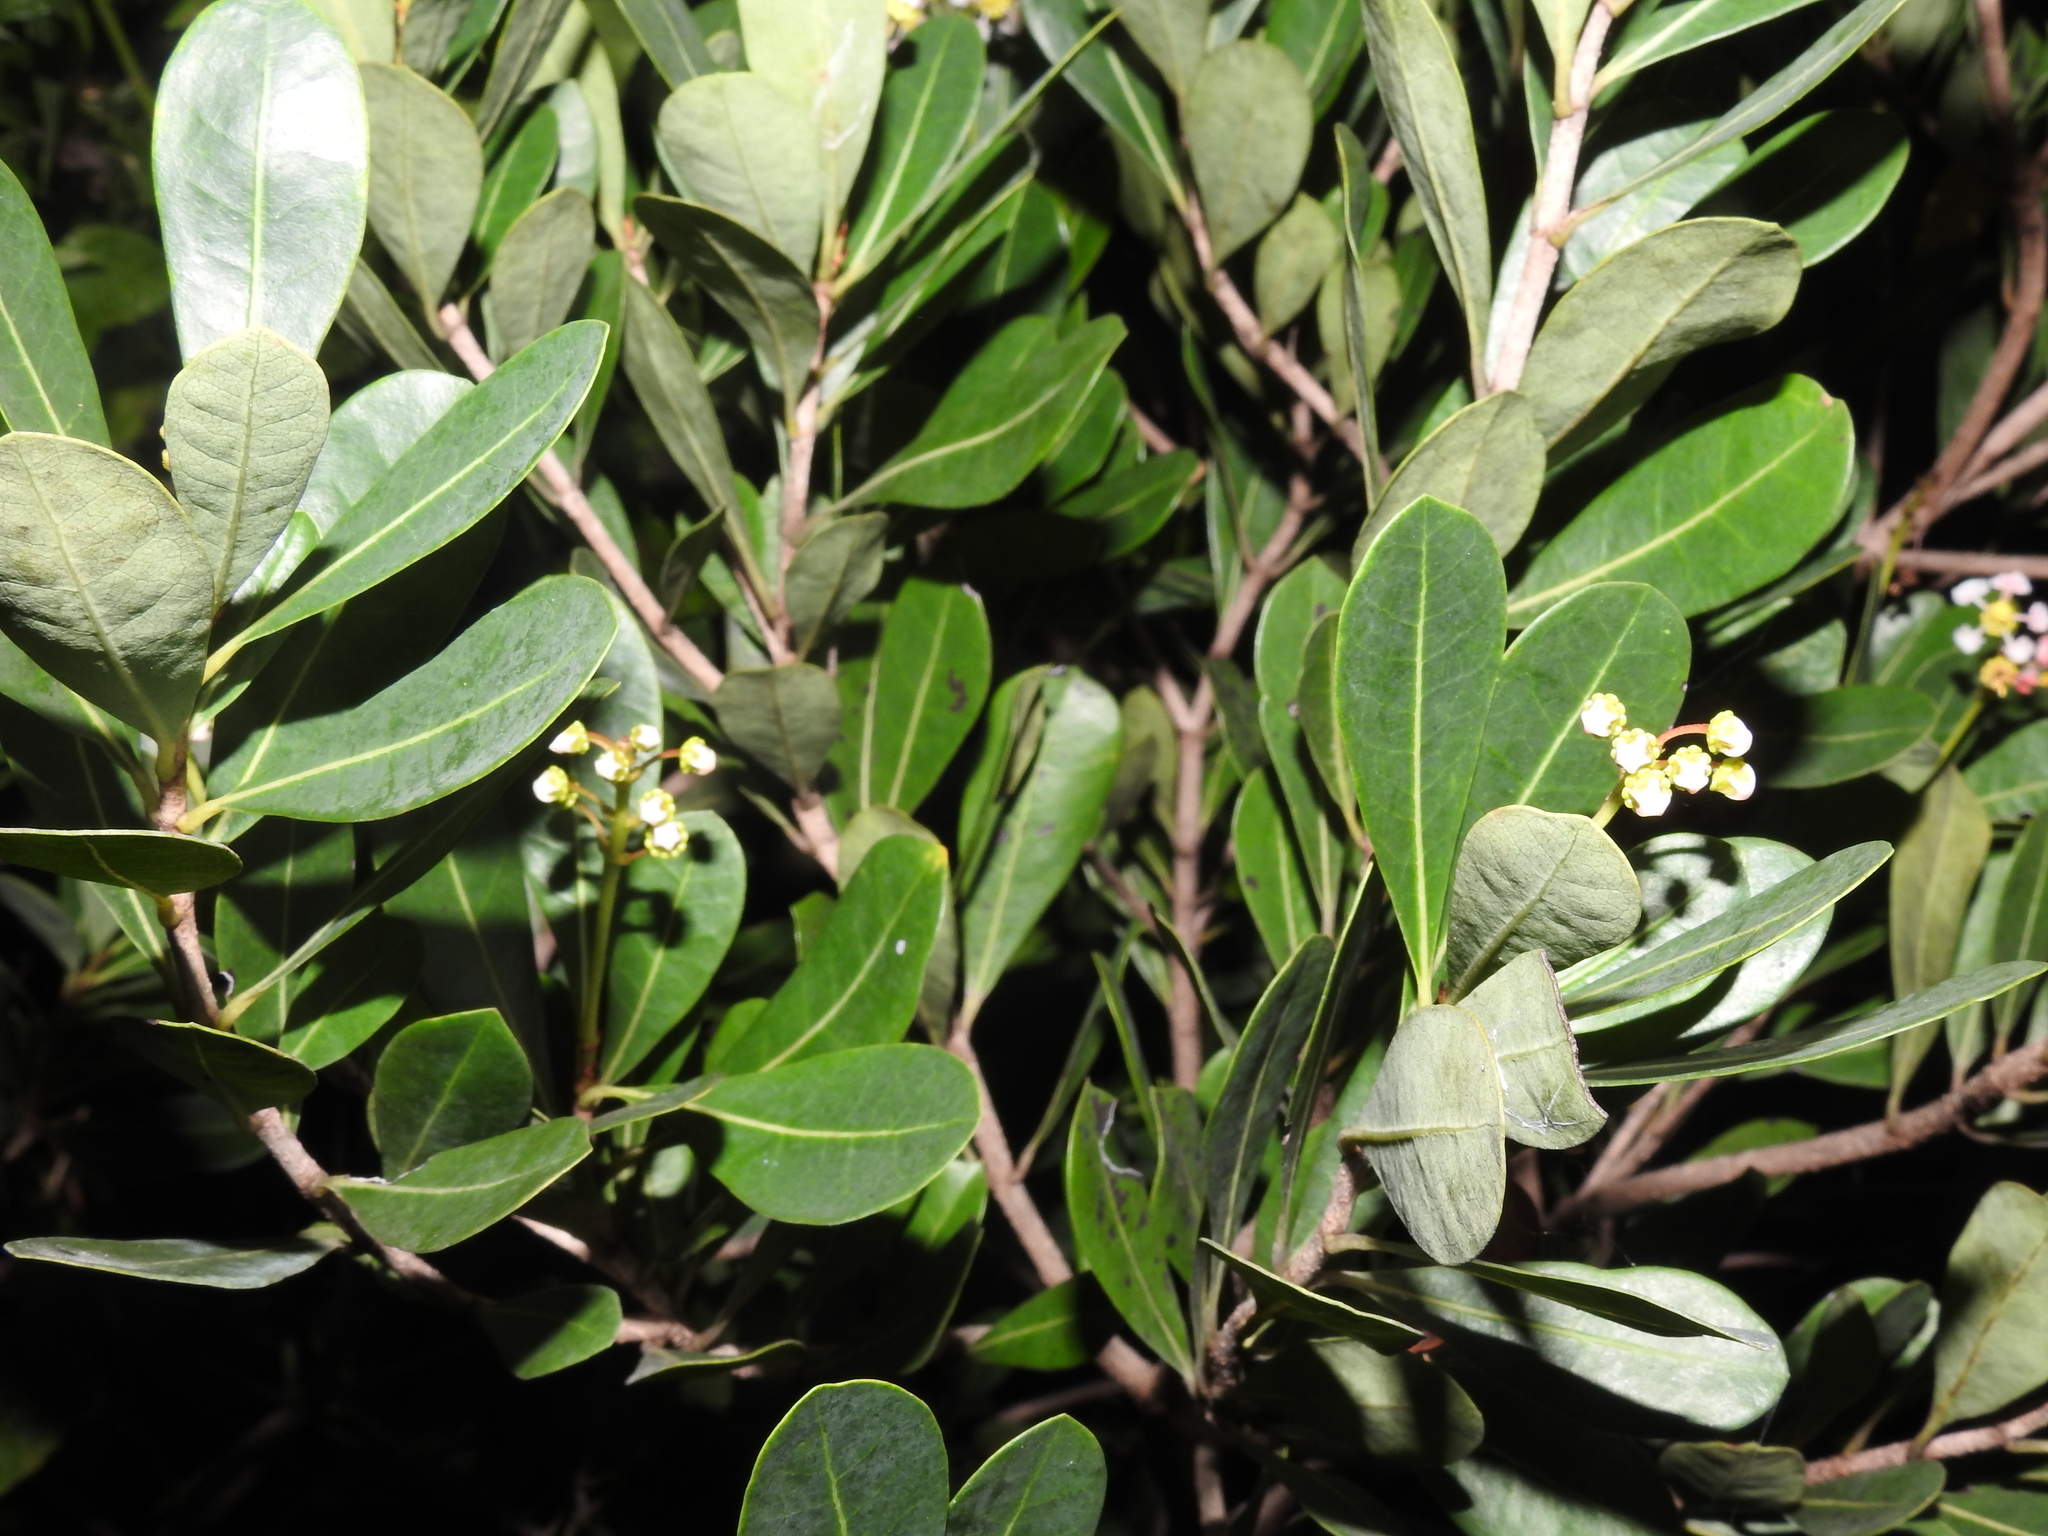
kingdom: Plantae
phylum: Tracheophyta
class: Magnoliopsida
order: Malpighiales
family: Malpighiaceae
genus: Byrsonima
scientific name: Byrsonima lucida
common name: Clam-cherry
